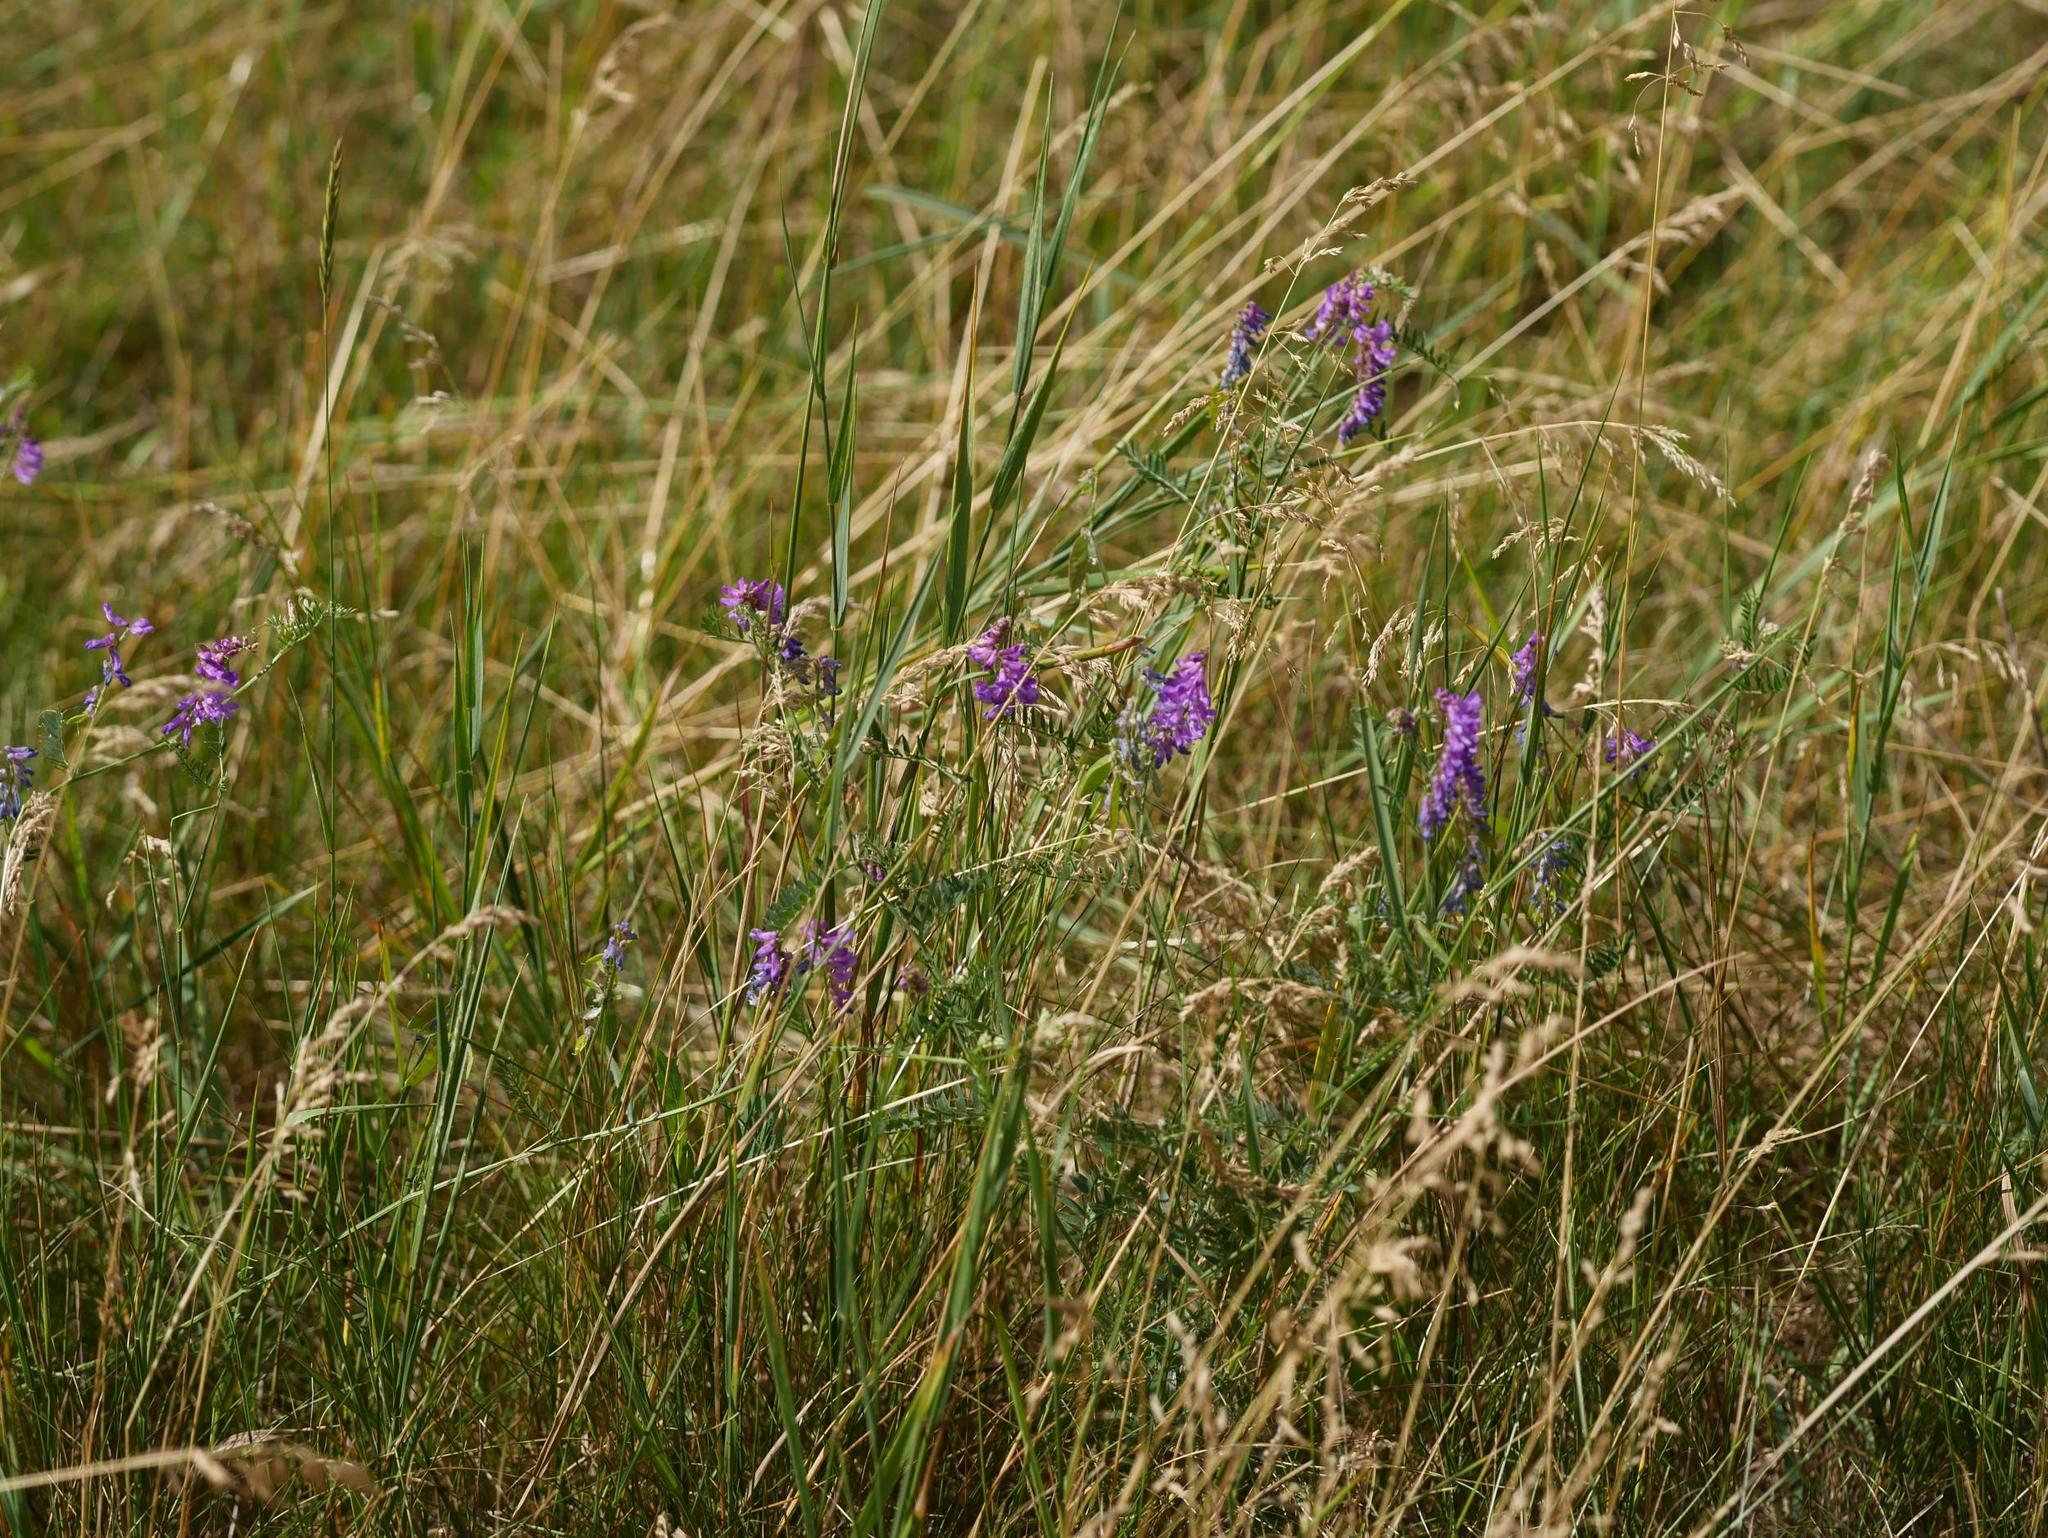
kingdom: Plantae
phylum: Tracheophyta
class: Magnoliopsida
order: Fabales
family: Fabaceae
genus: Vicia
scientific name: Vicia cracca
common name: Bird vetch
